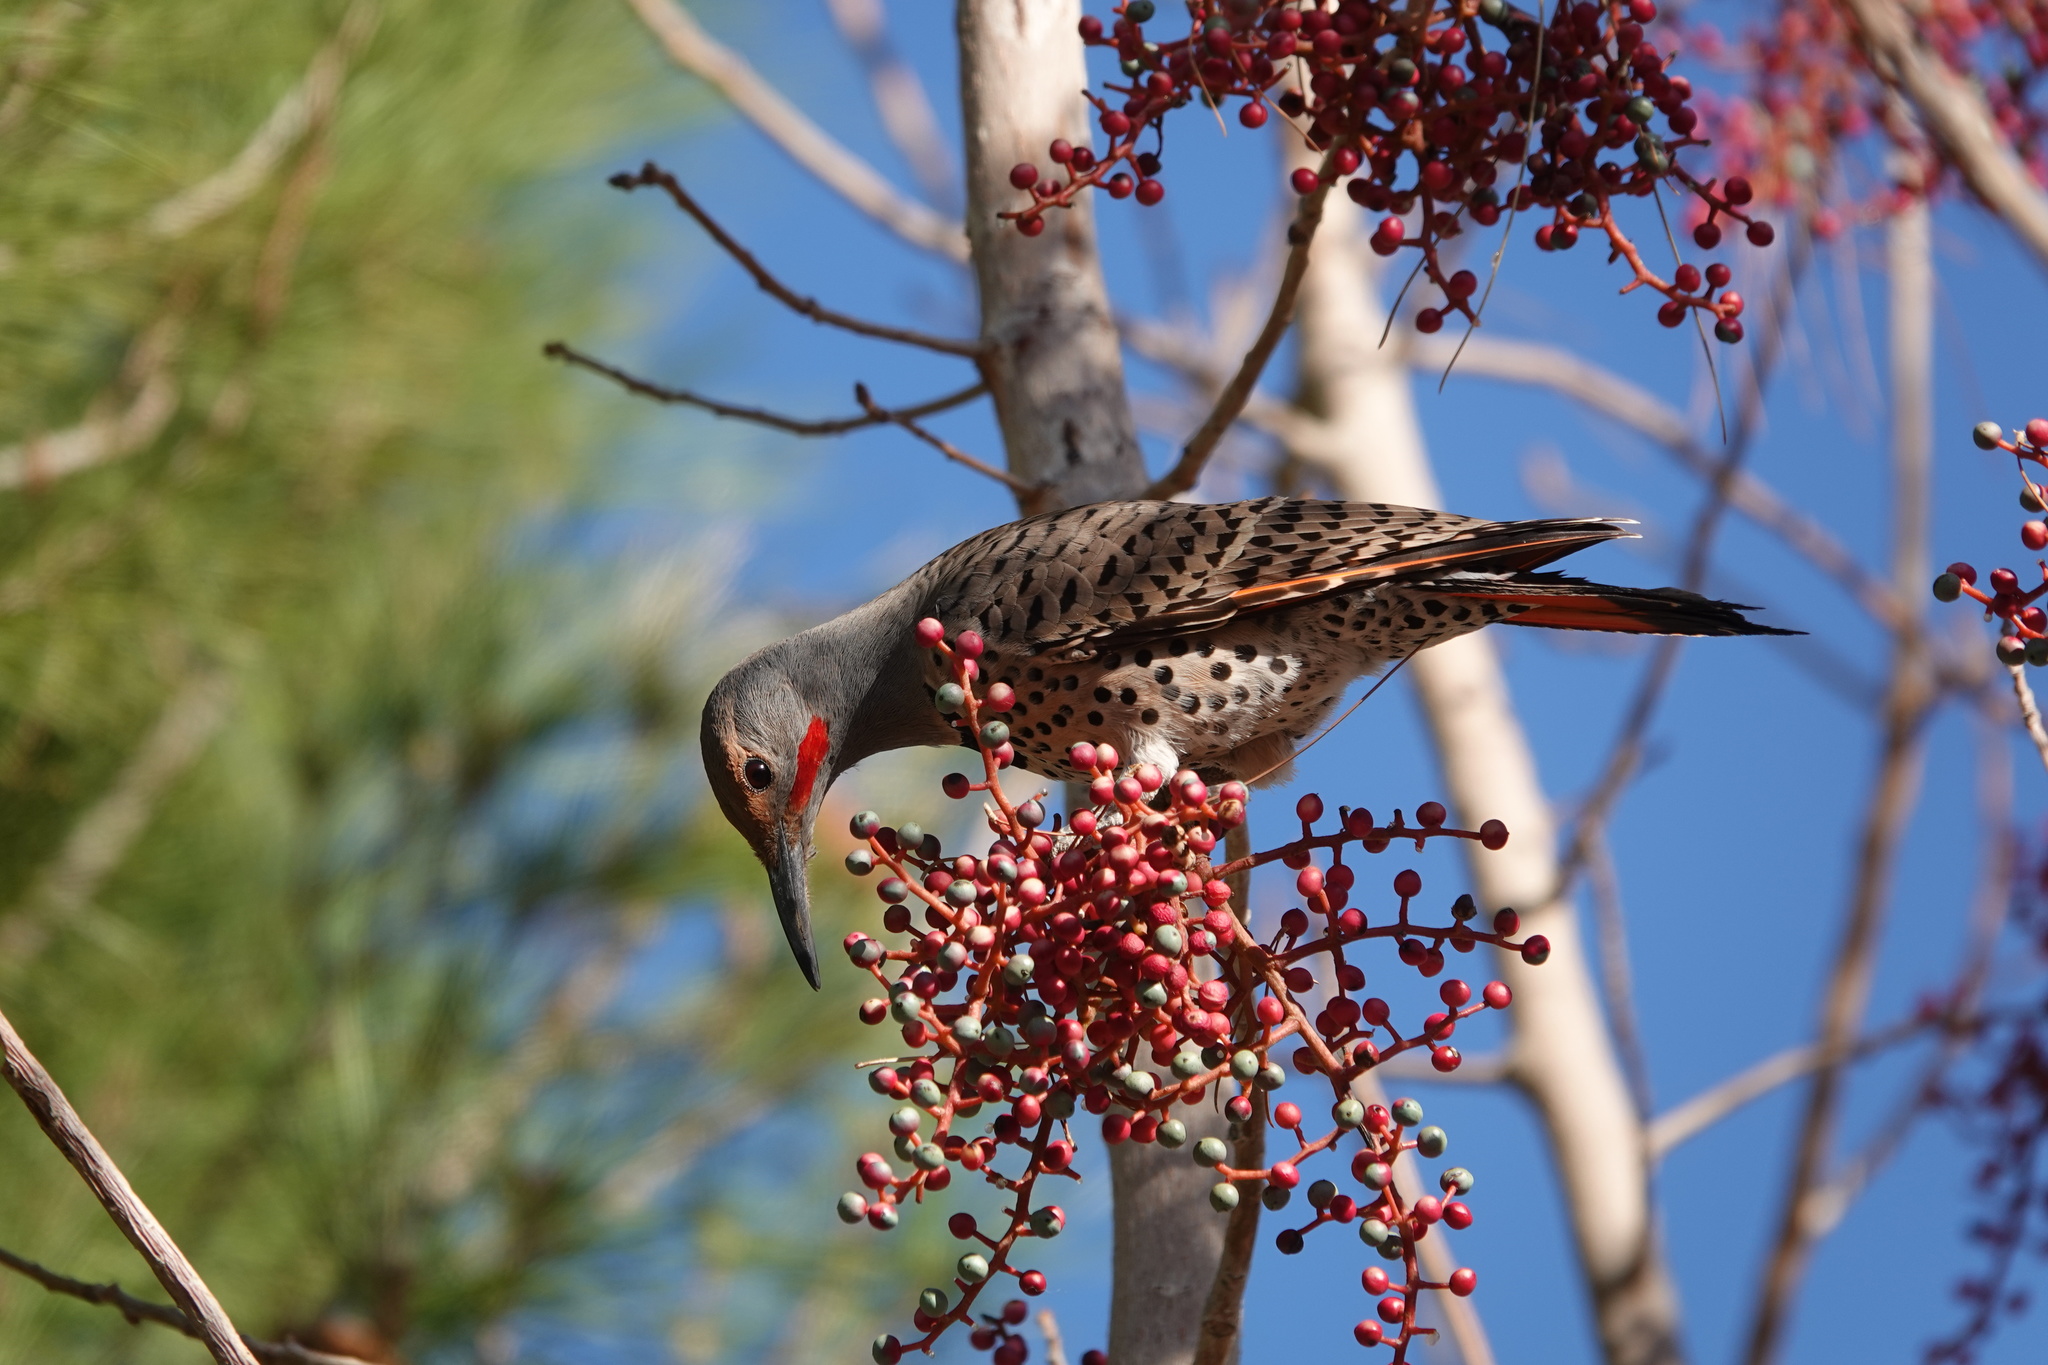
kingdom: Animalia
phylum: Chordata
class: Aves
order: Piciformes
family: Picidae
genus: Colaptes
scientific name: Colaptes auratus
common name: Northern flicker
